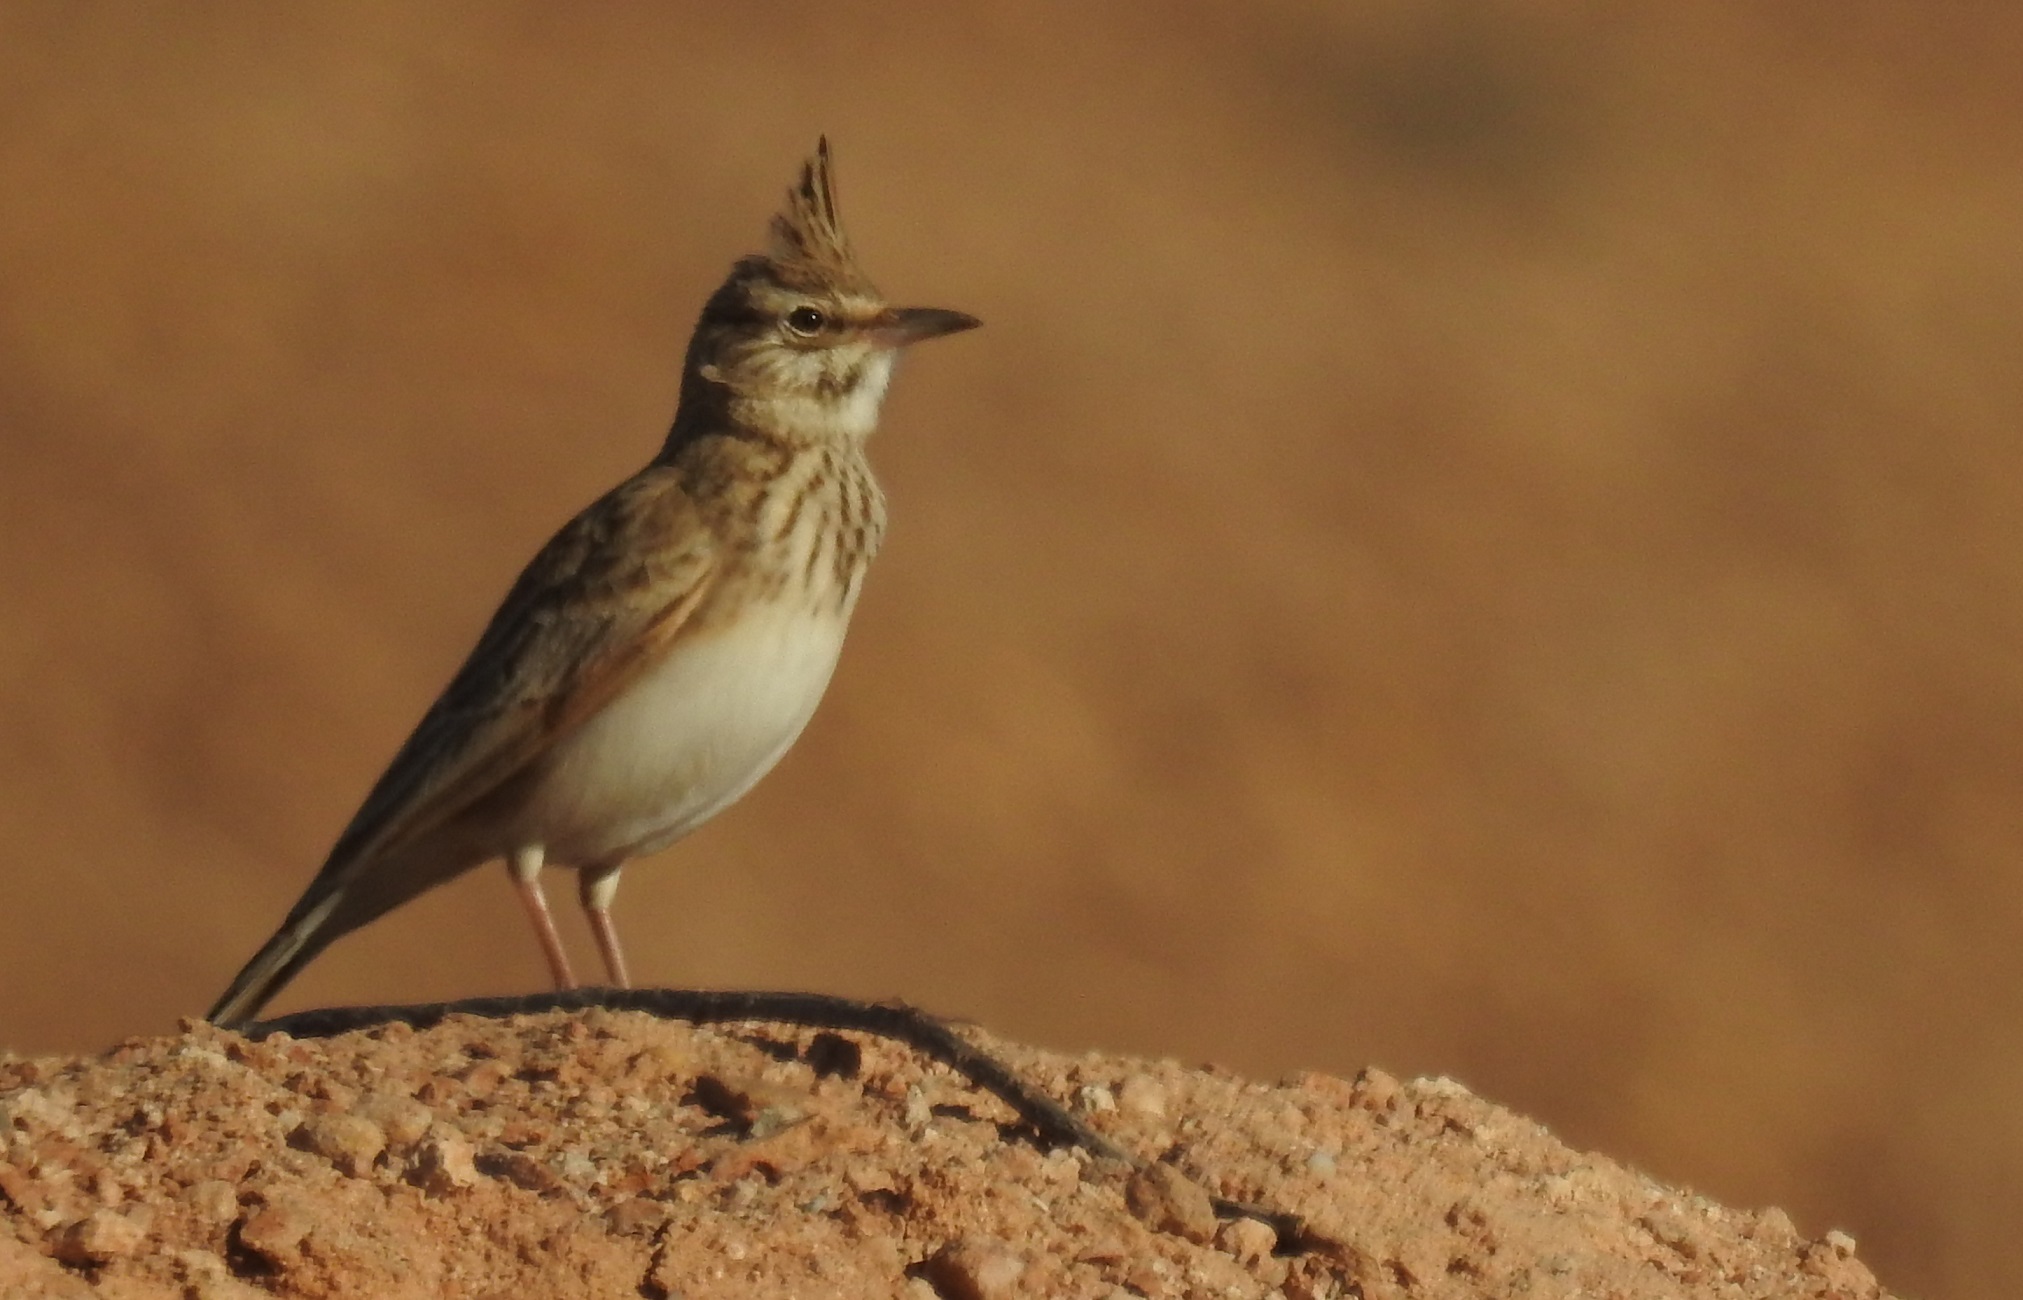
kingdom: Animalia
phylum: Chordata
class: Aves
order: Passeriformes
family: Alaudidae
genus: Galerida
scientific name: Galerida cristata
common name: Crested lark
